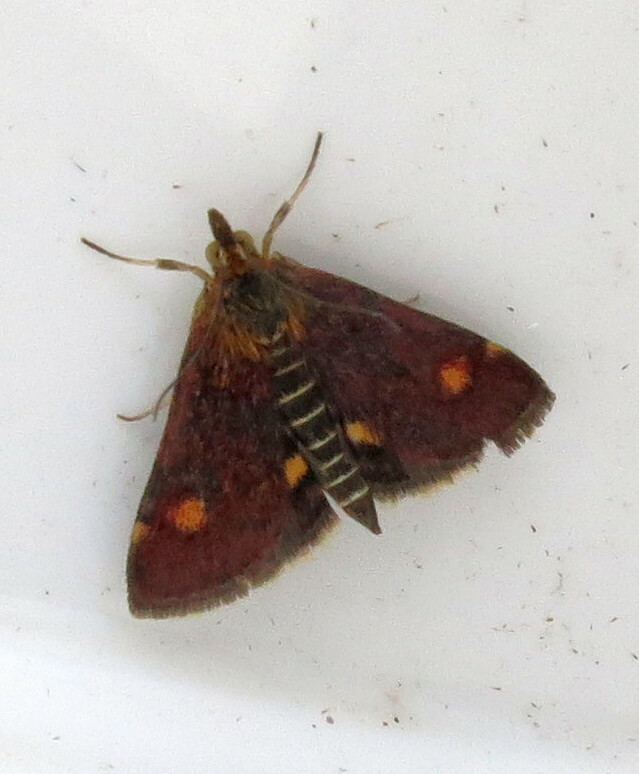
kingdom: Animalia
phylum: Arthropoda
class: Insecta
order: Lepidoptera
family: Crambidae
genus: Pyrausta
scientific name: Pyrausta aurata
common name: Small purple & gold
